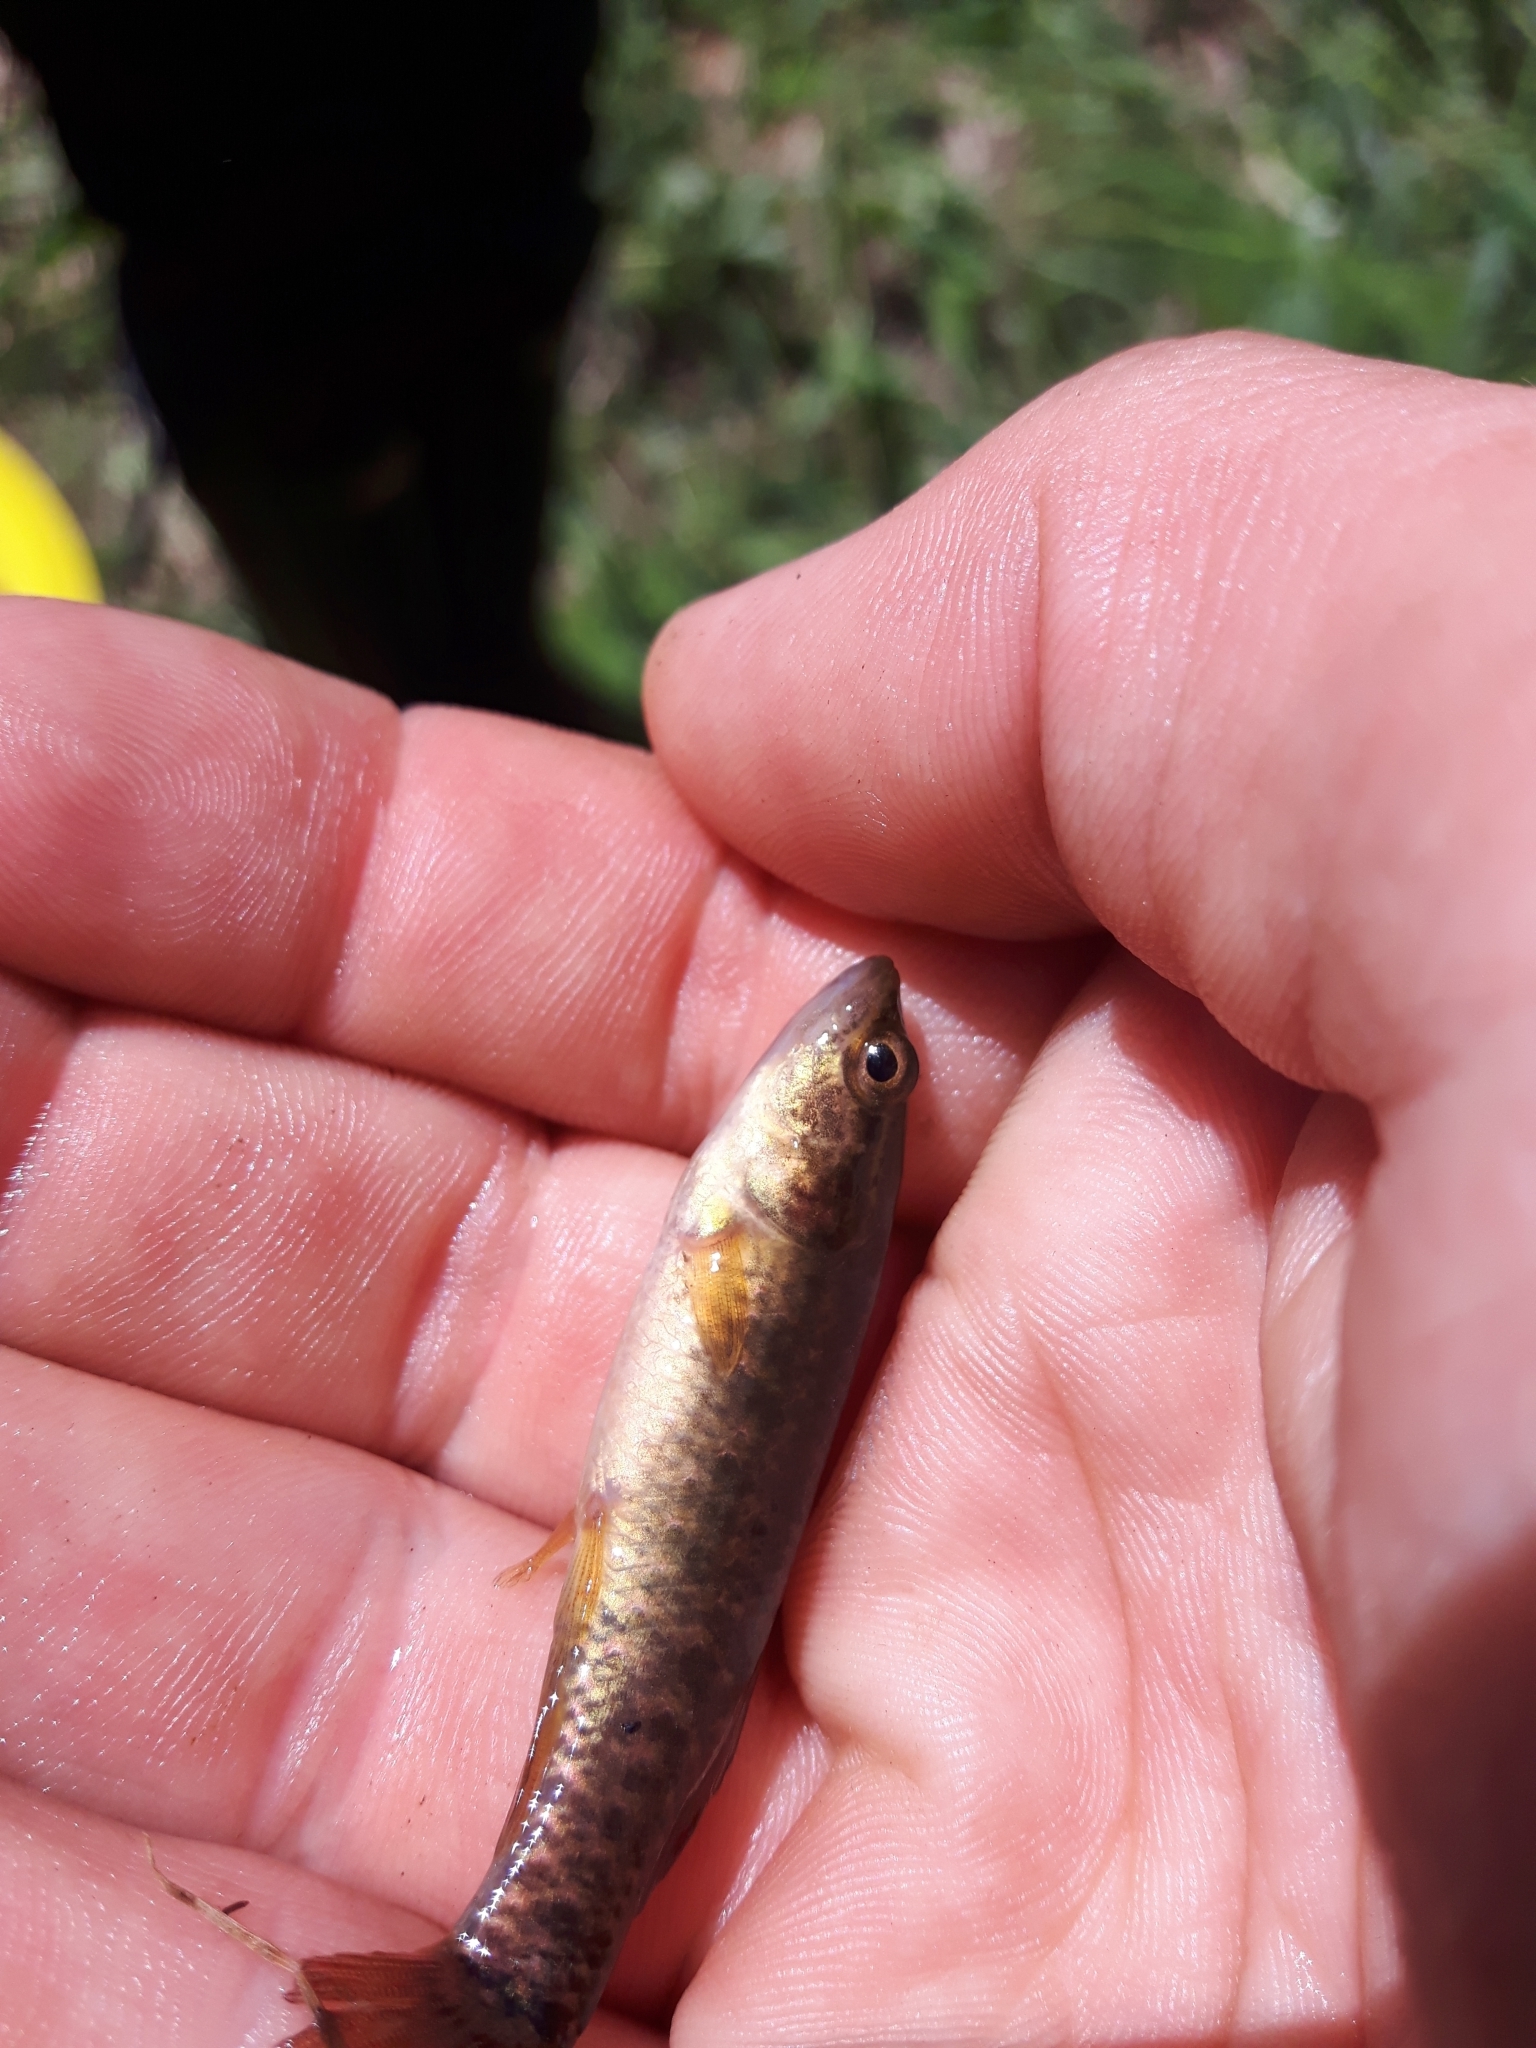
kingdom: Animalia
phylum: Chordata
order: Esociformes
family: Umbridae
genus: Umbra
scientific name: Umbra limi
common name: Central mudminnow
